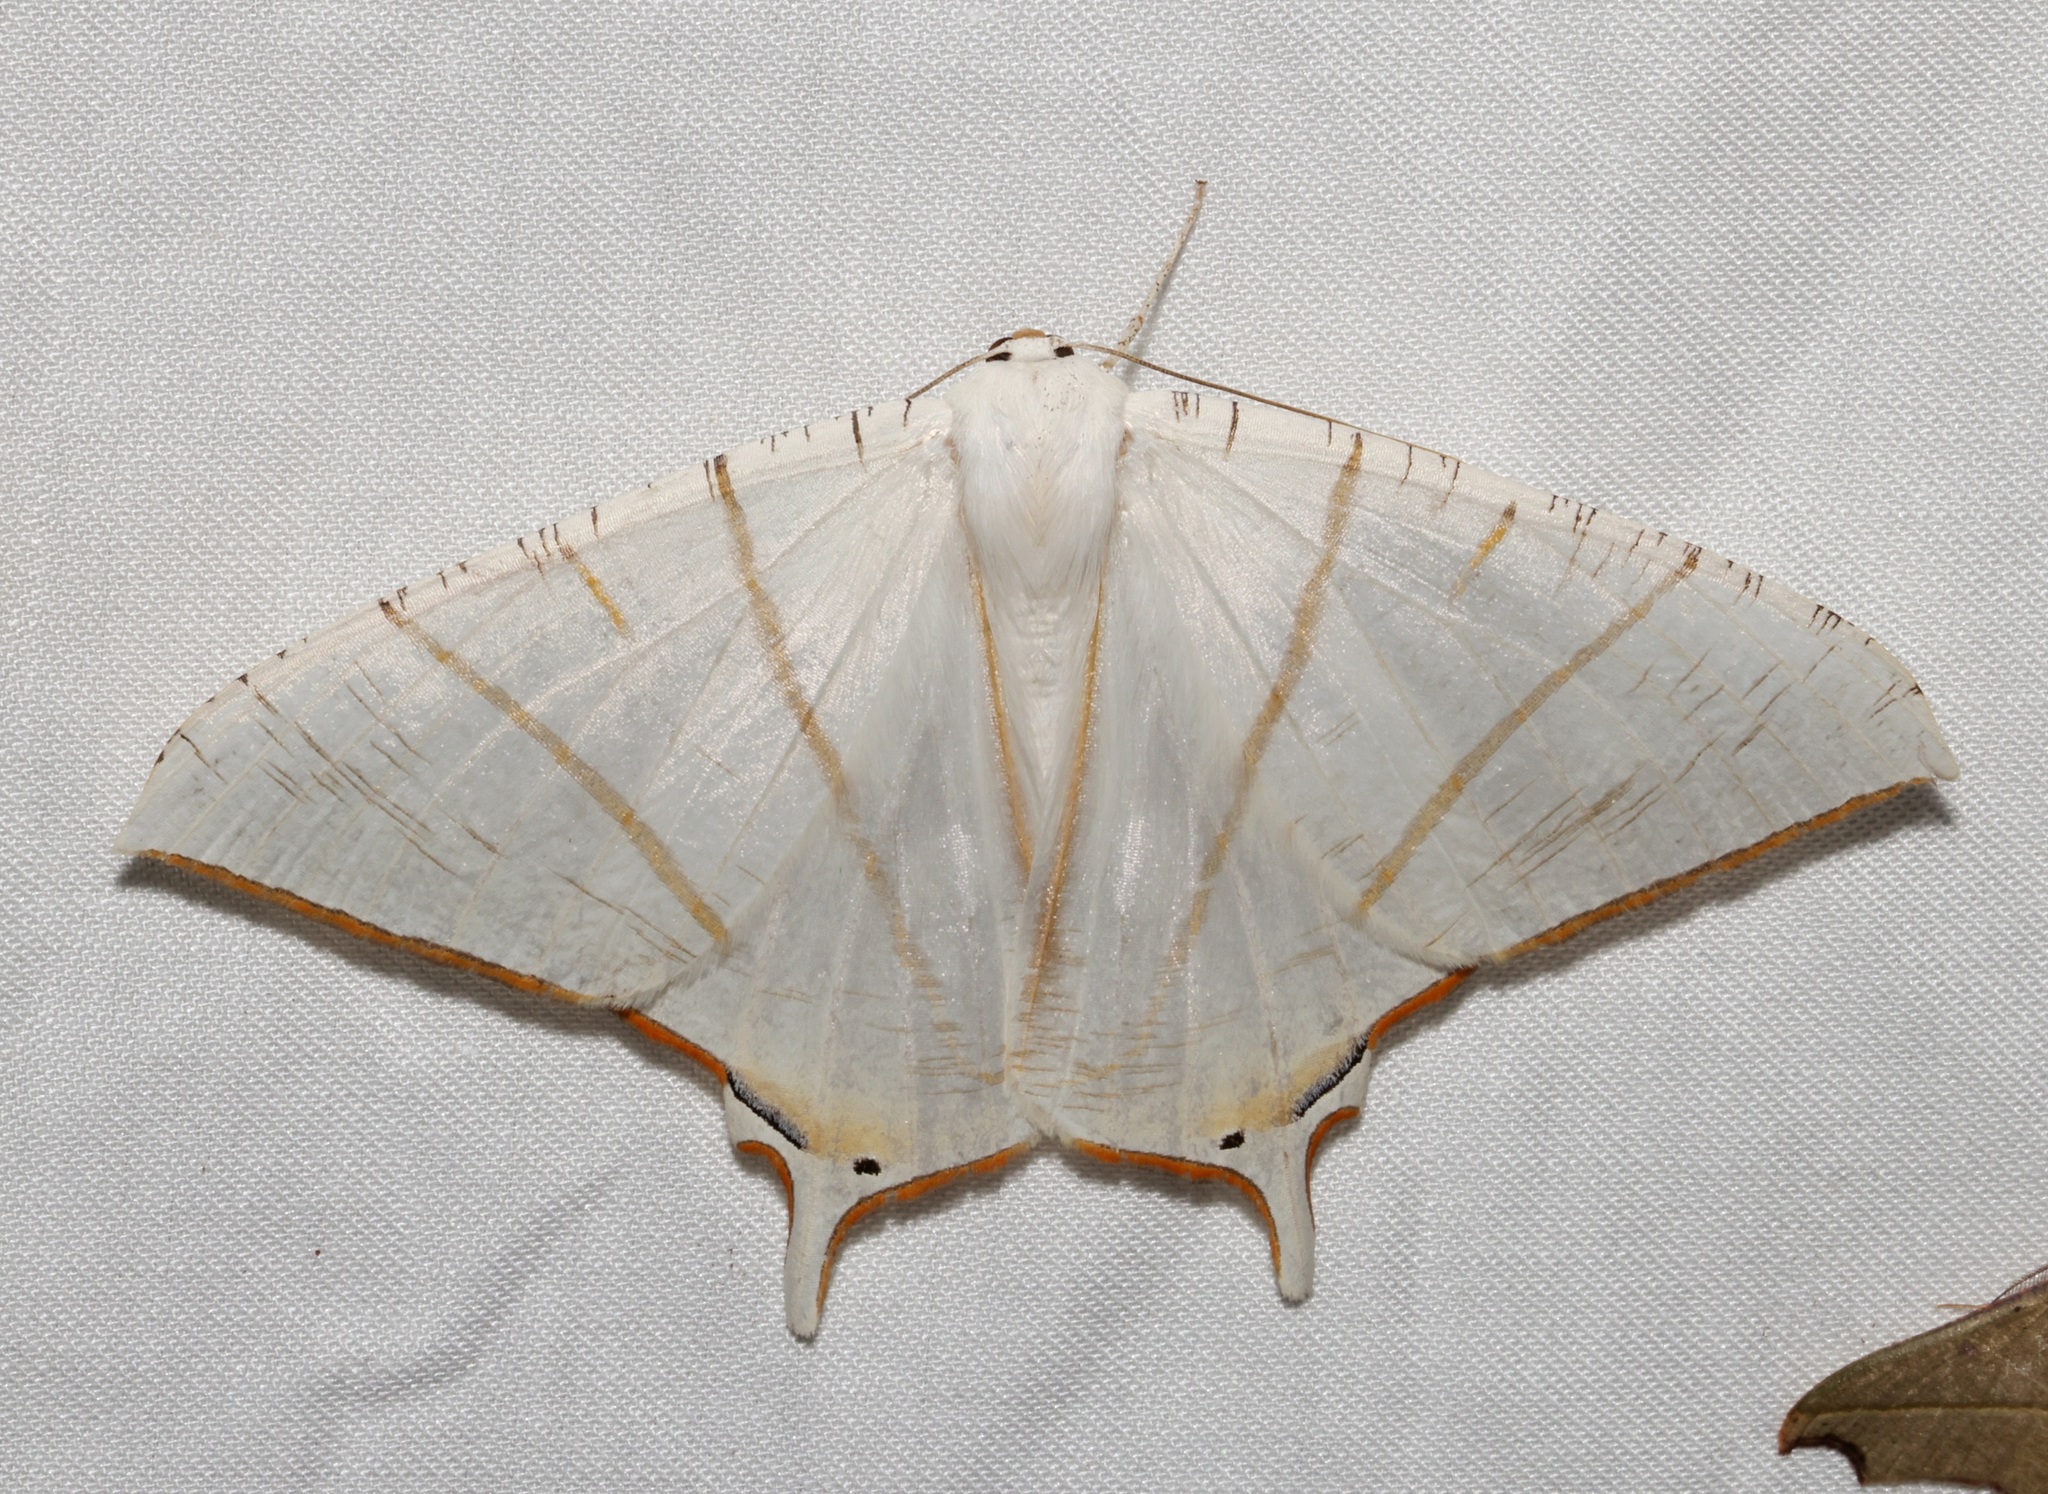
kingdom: Animalia
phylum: Arthropoda
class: Insecta
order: Lepidoptera
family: Geometridae
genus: Ourapteryx
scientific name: Ourapteryx clara
